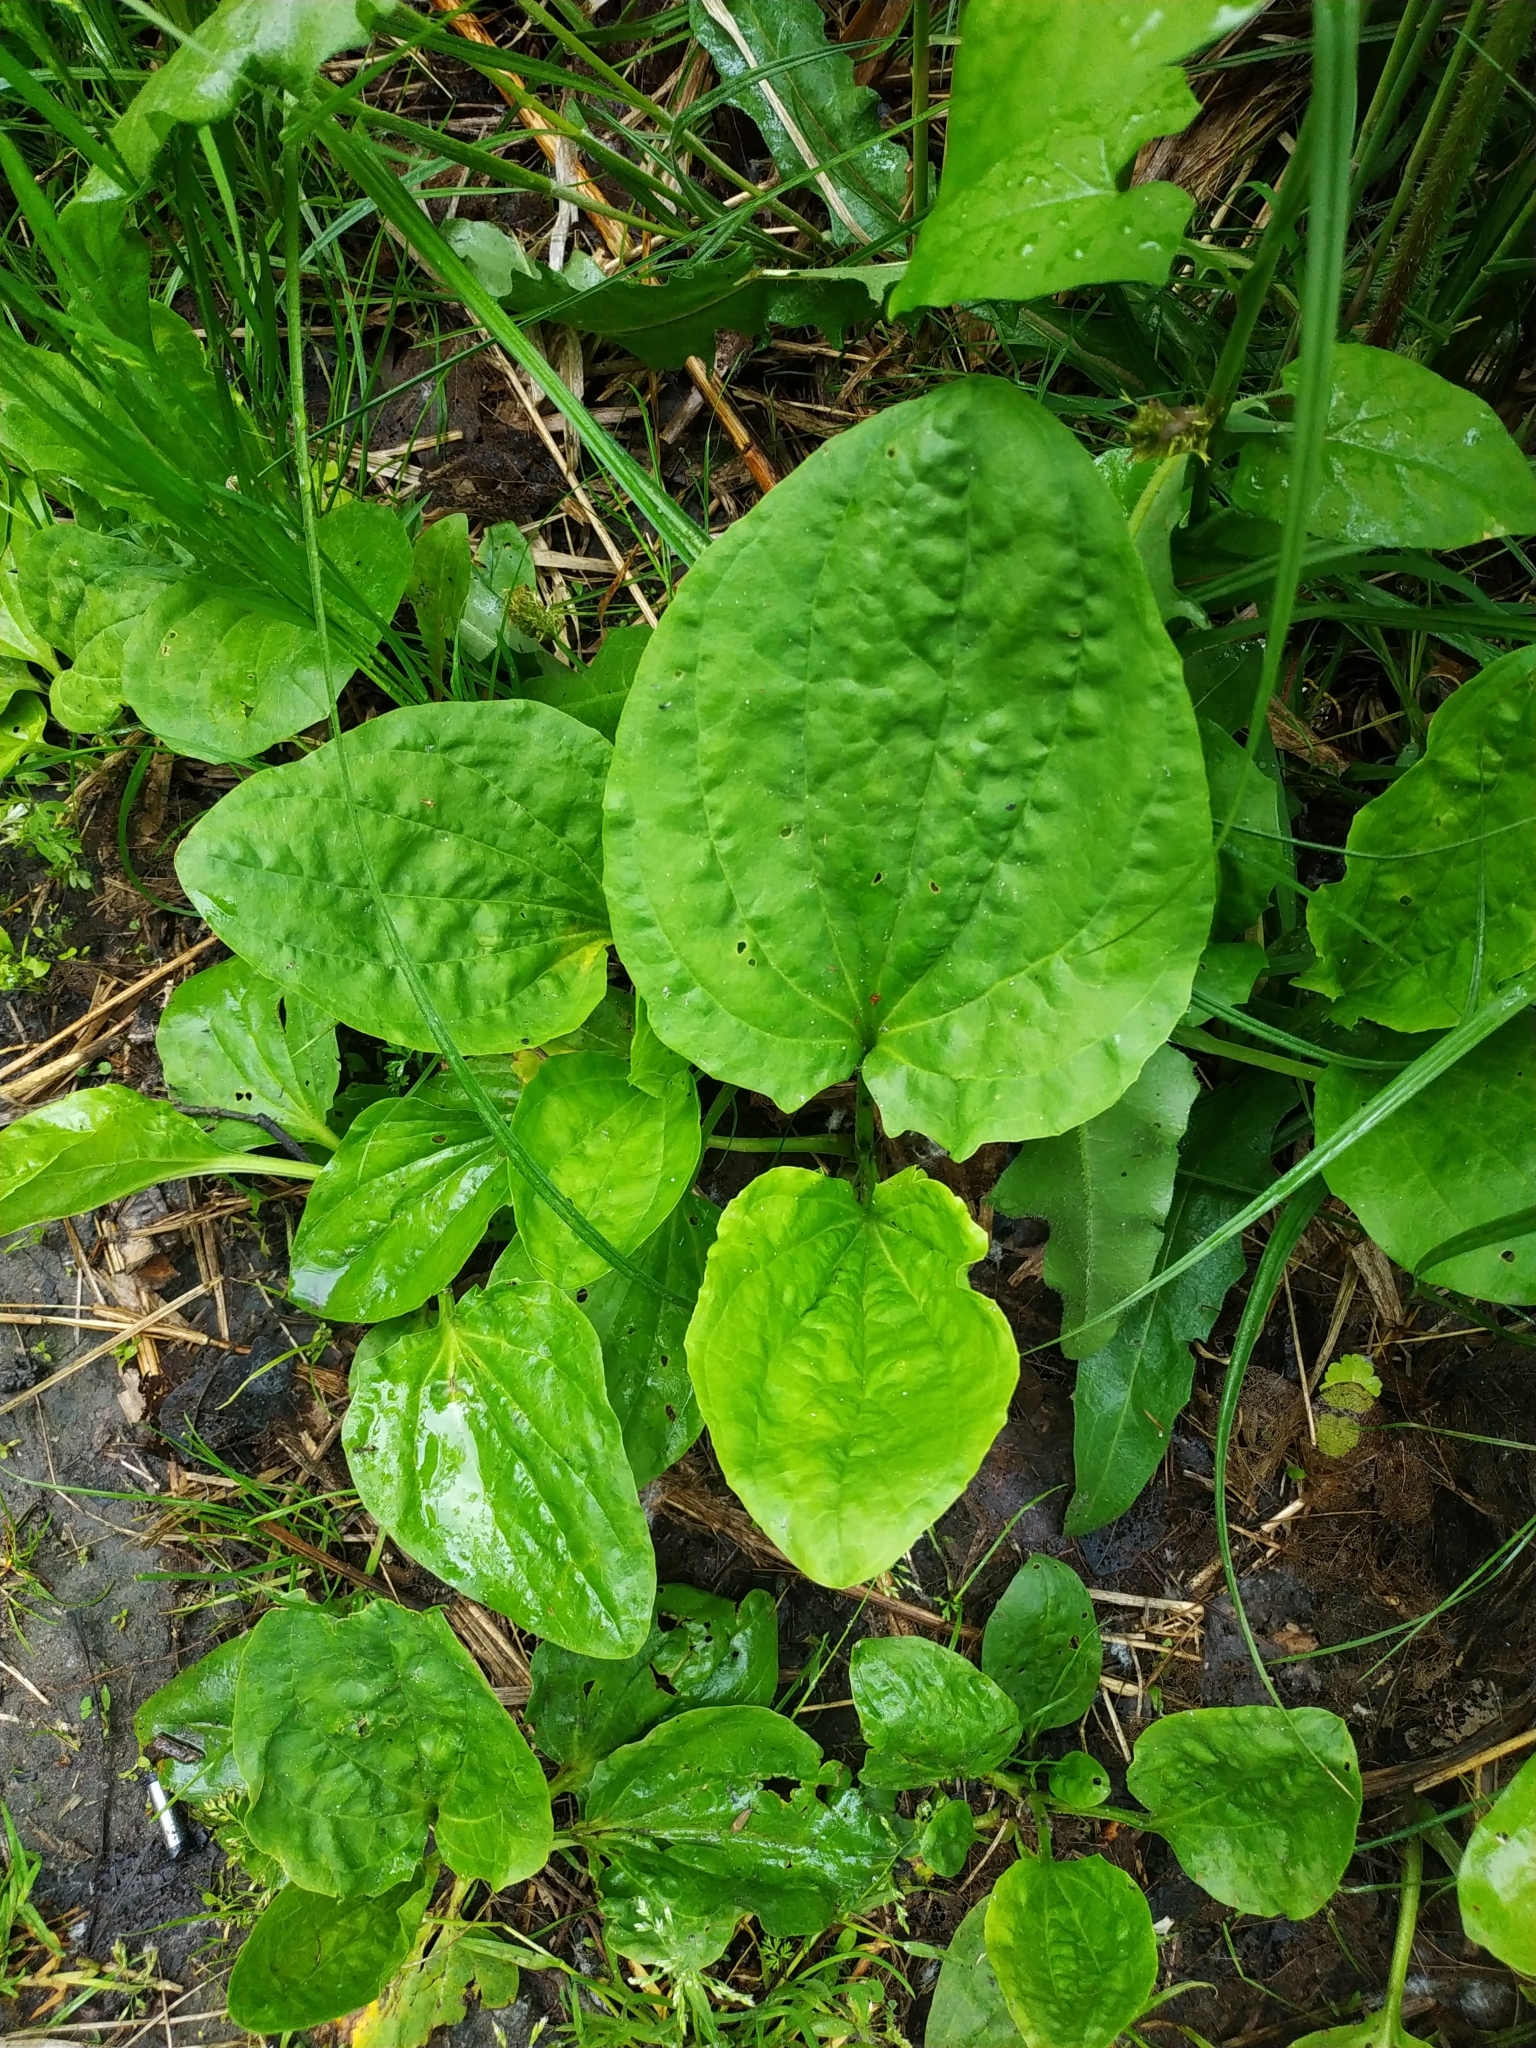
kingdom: Plantae
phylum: Tracheophyta
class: Magnoliopsida
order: Lamiales
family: Plantaginaceae
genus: Plantago
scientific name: Plantago major
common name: Common plantain
